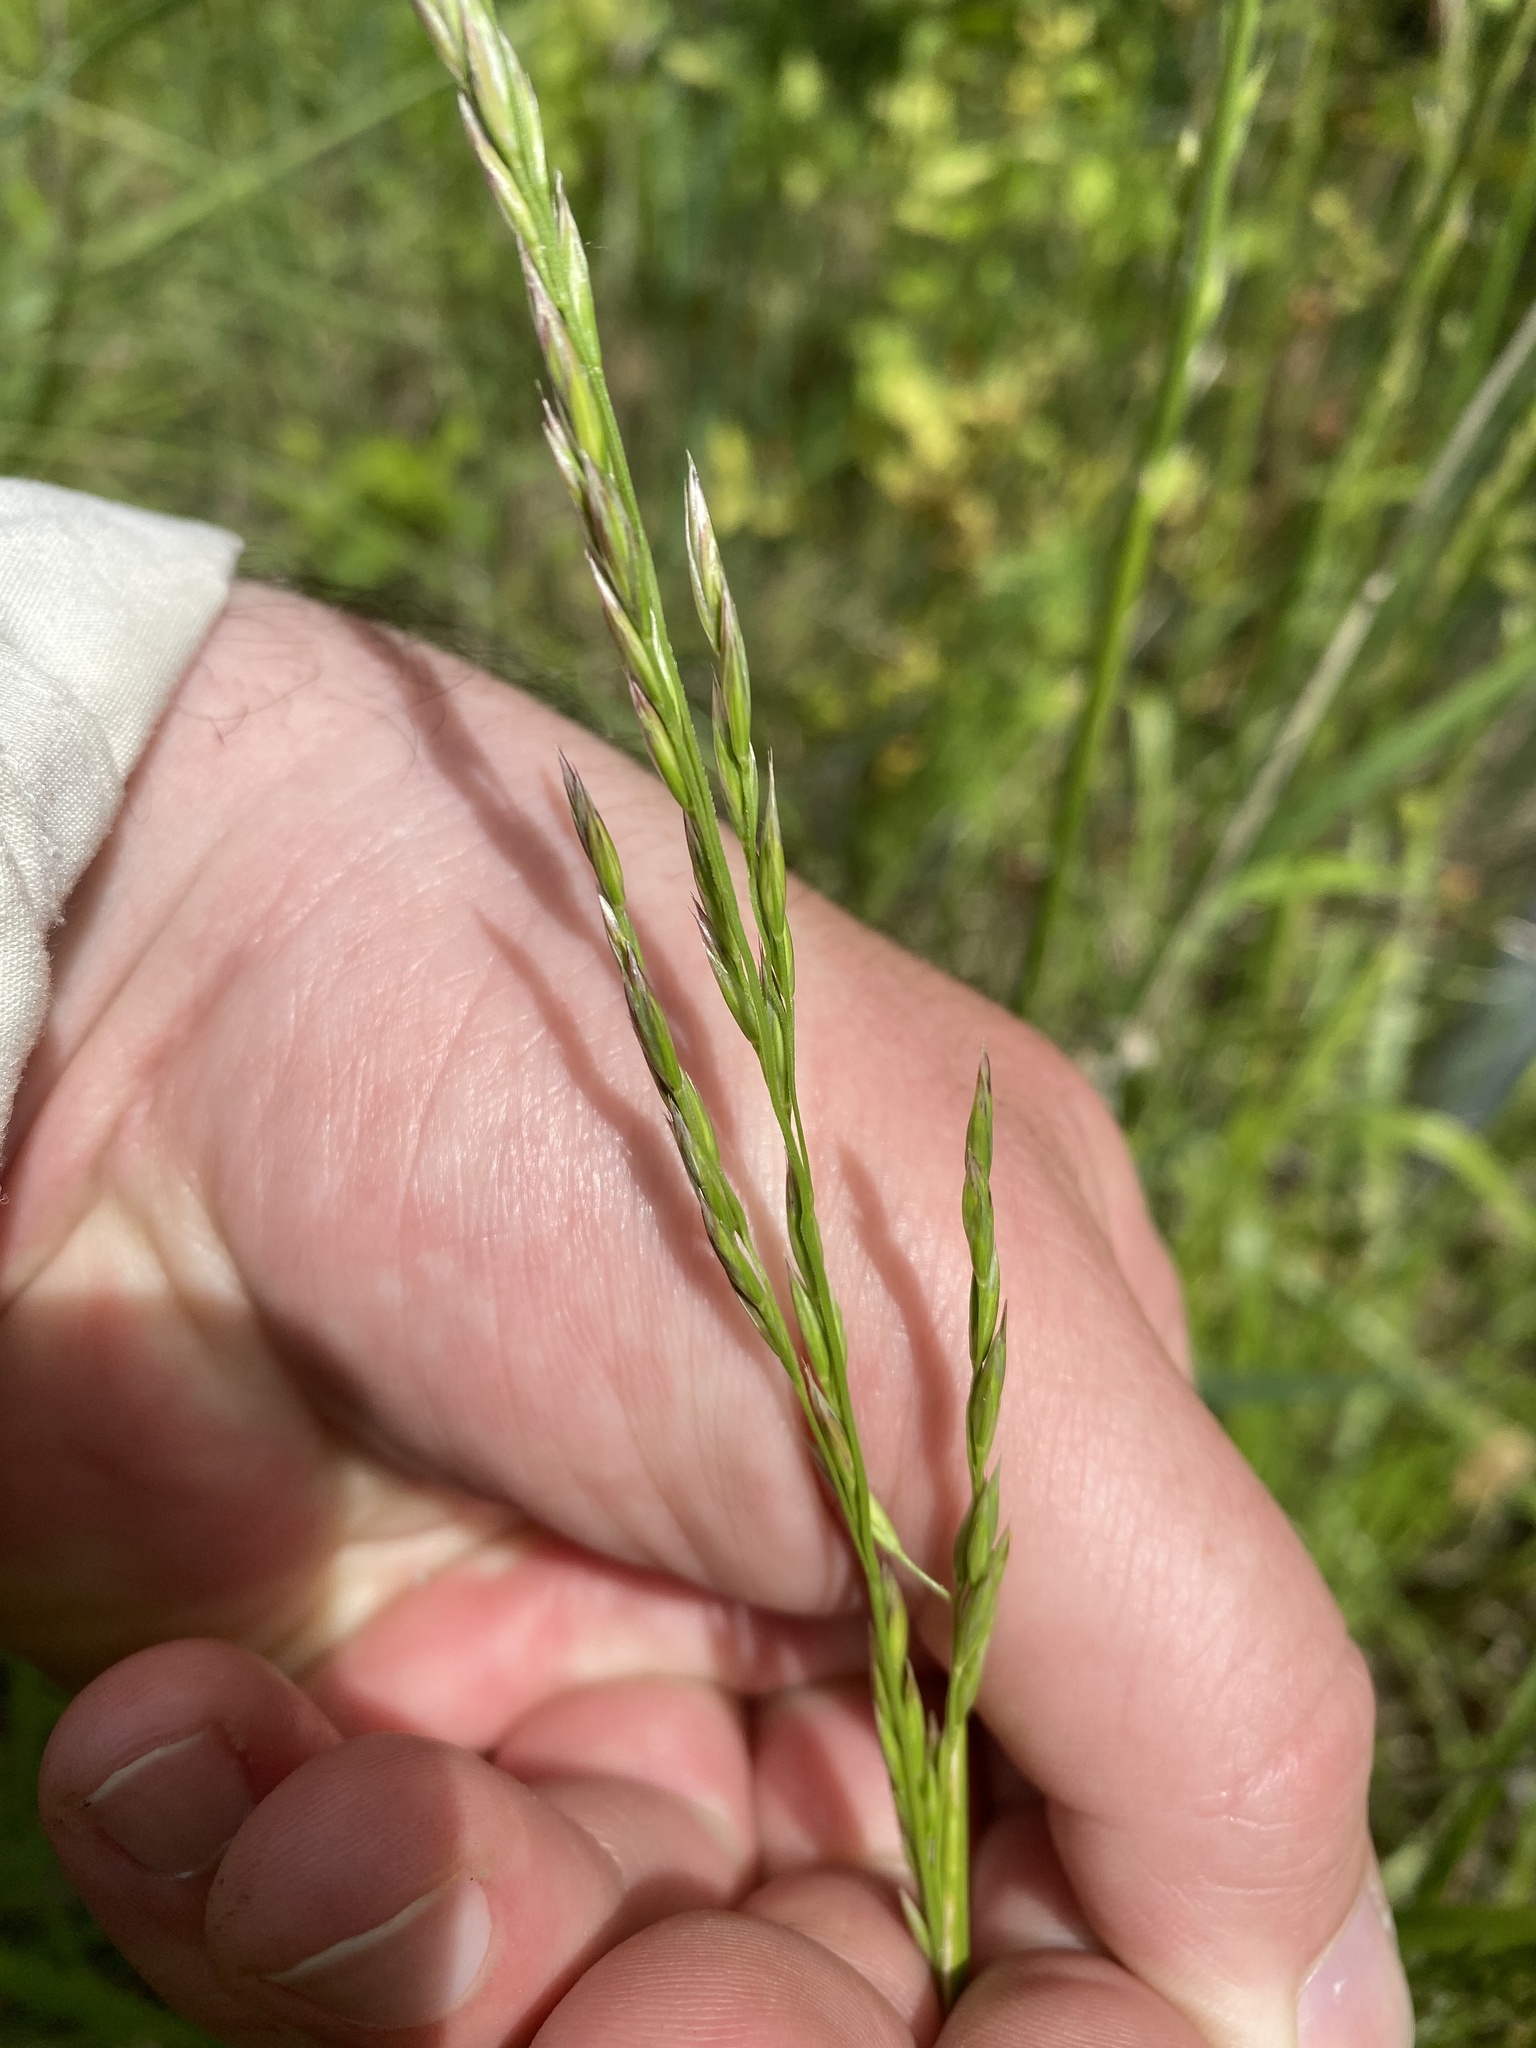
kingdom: Plantae
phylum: Tracheophyta
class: Liliopsida
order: Poales
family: Poaceae
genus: Lolium
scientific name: Lolium arundinaceum
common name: Reed fescue
